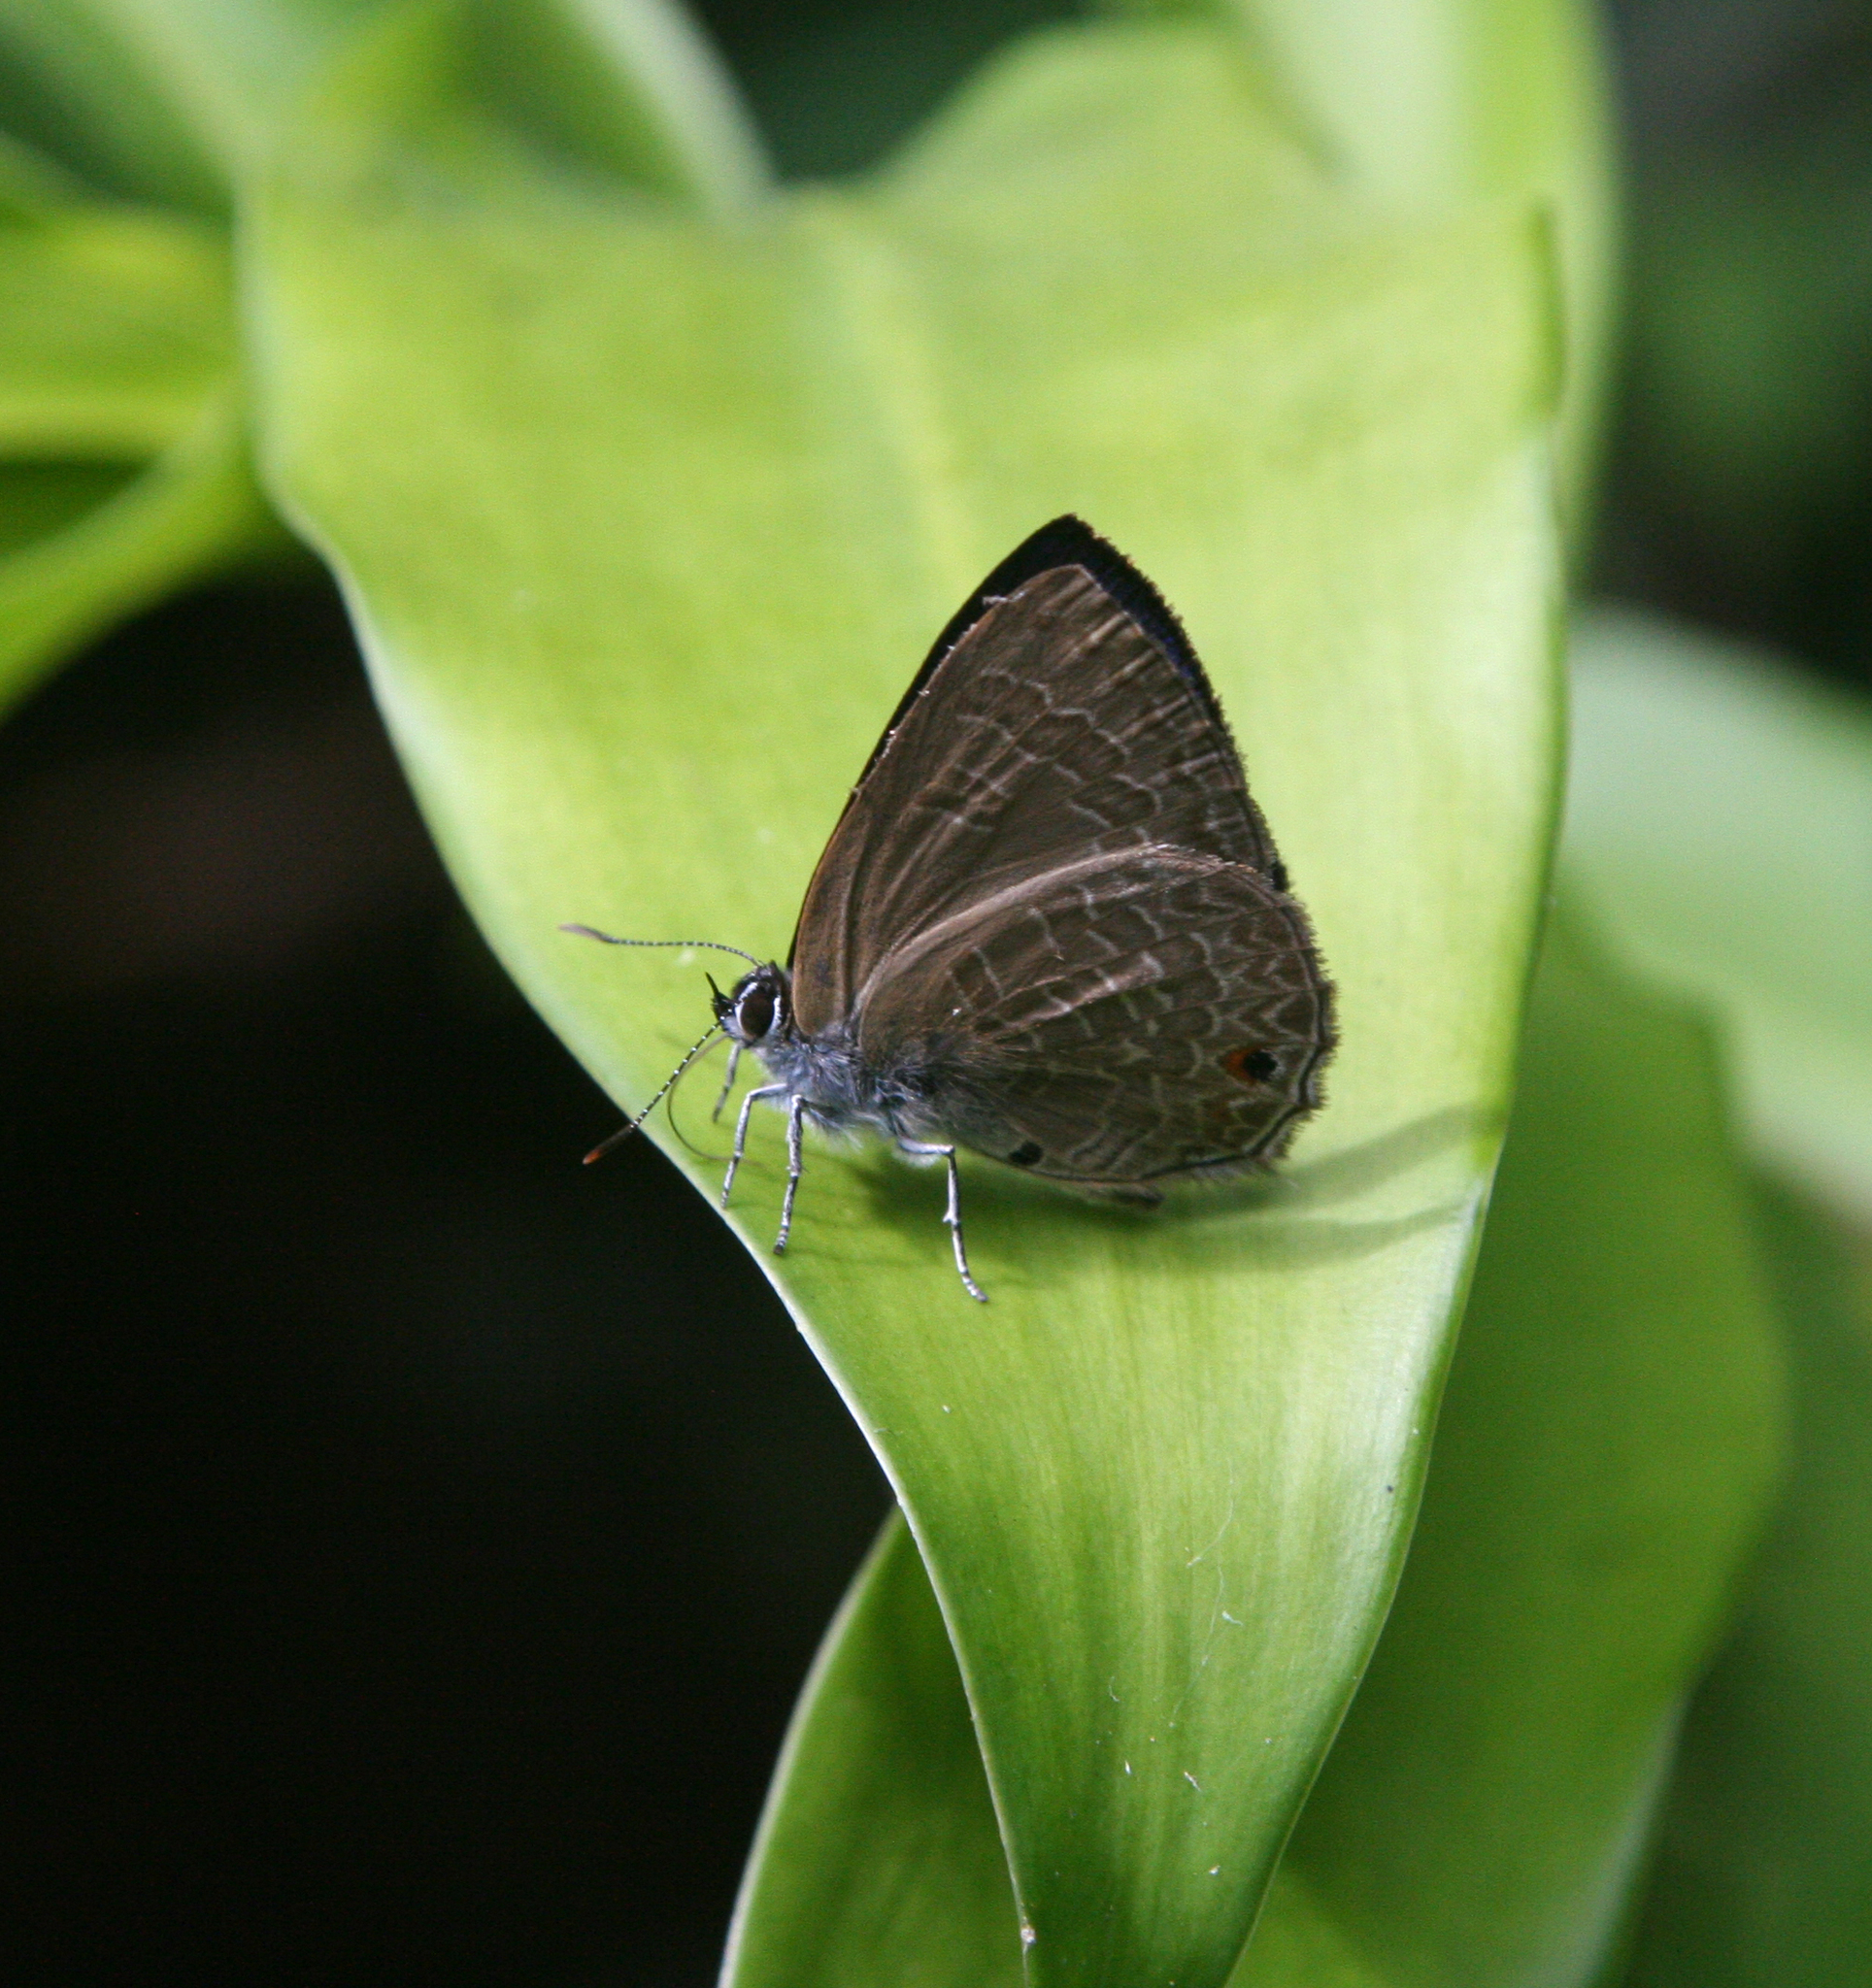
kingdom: Animalia
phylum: Arthropoda
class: Insecta
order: Lepidoptera
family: Lycaenidae
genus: Anthene
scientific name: Anthene emolus
